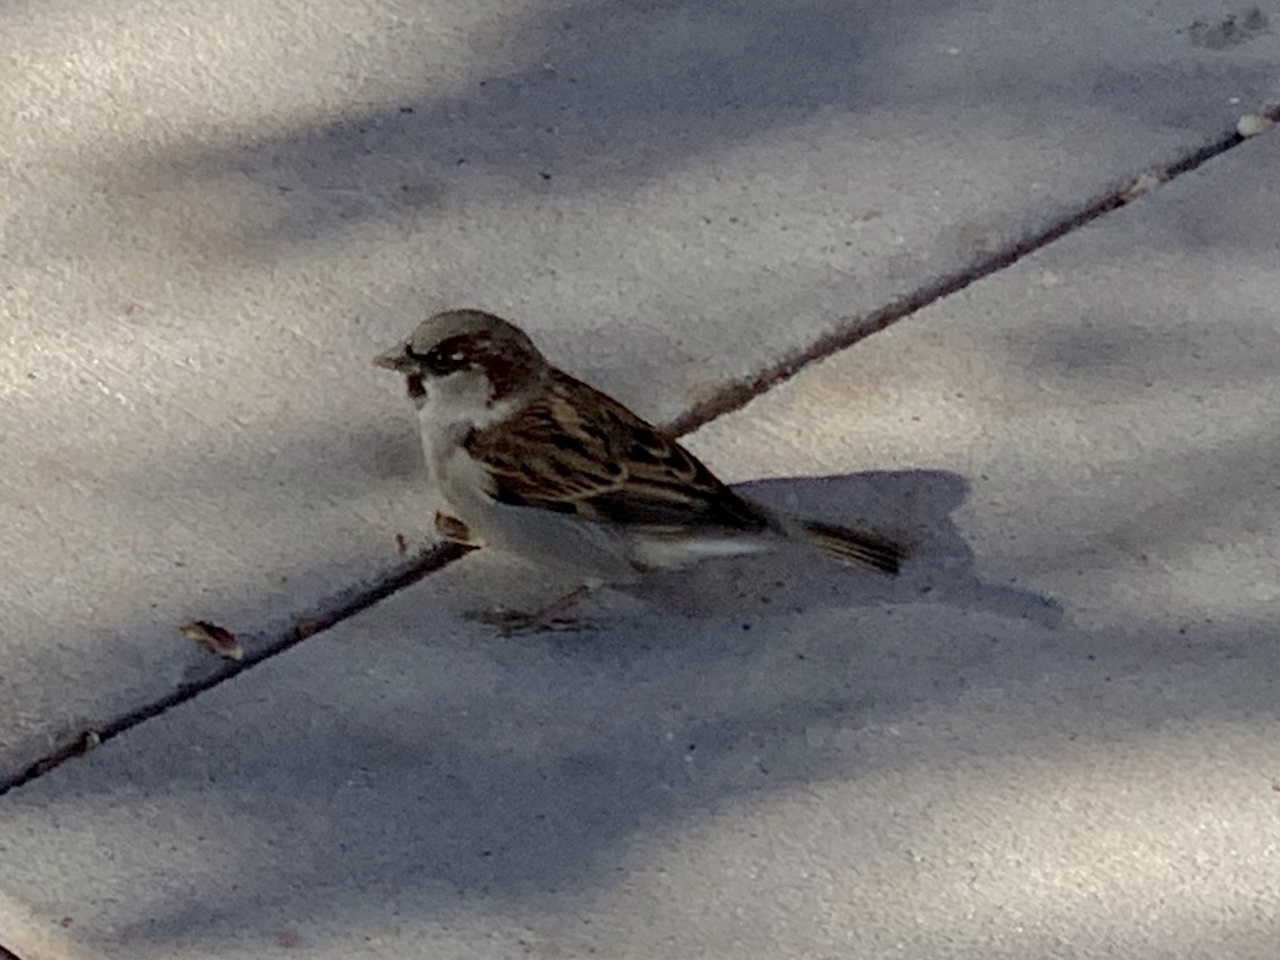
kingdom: Animalia
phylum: Chordata
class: Aves
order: Passeriformes
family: Passeridae
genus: Passer
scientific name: Passer domesticus
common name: House sparrow
